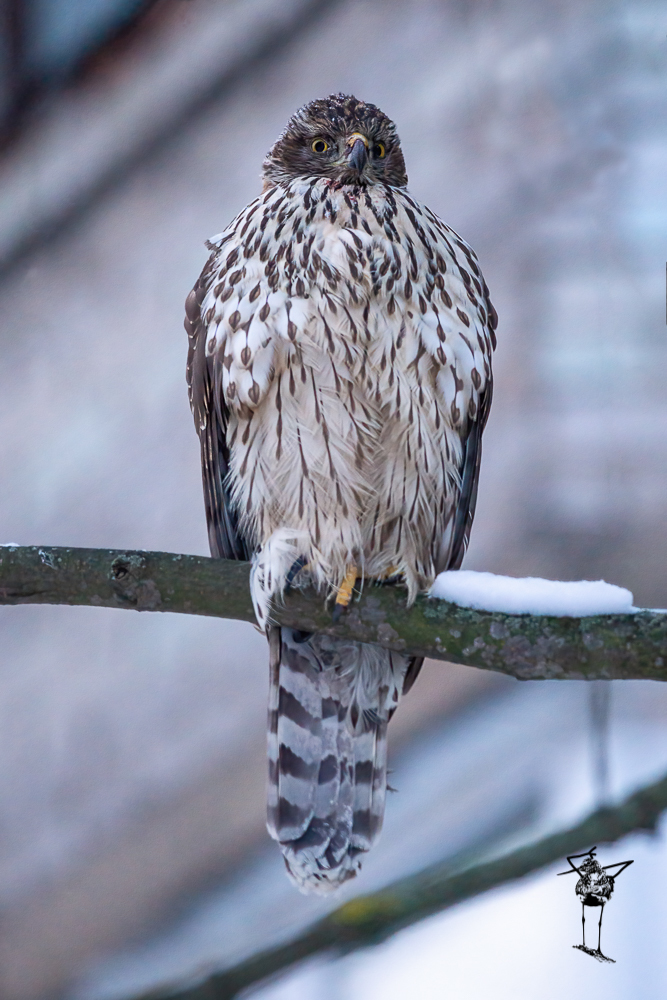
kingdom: Animalia
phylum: Chordata
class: Aves
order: Accipitriformes
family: Accipitridae
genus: Accipiter
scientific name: Accipiter gentilis
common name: Northern goshawk
